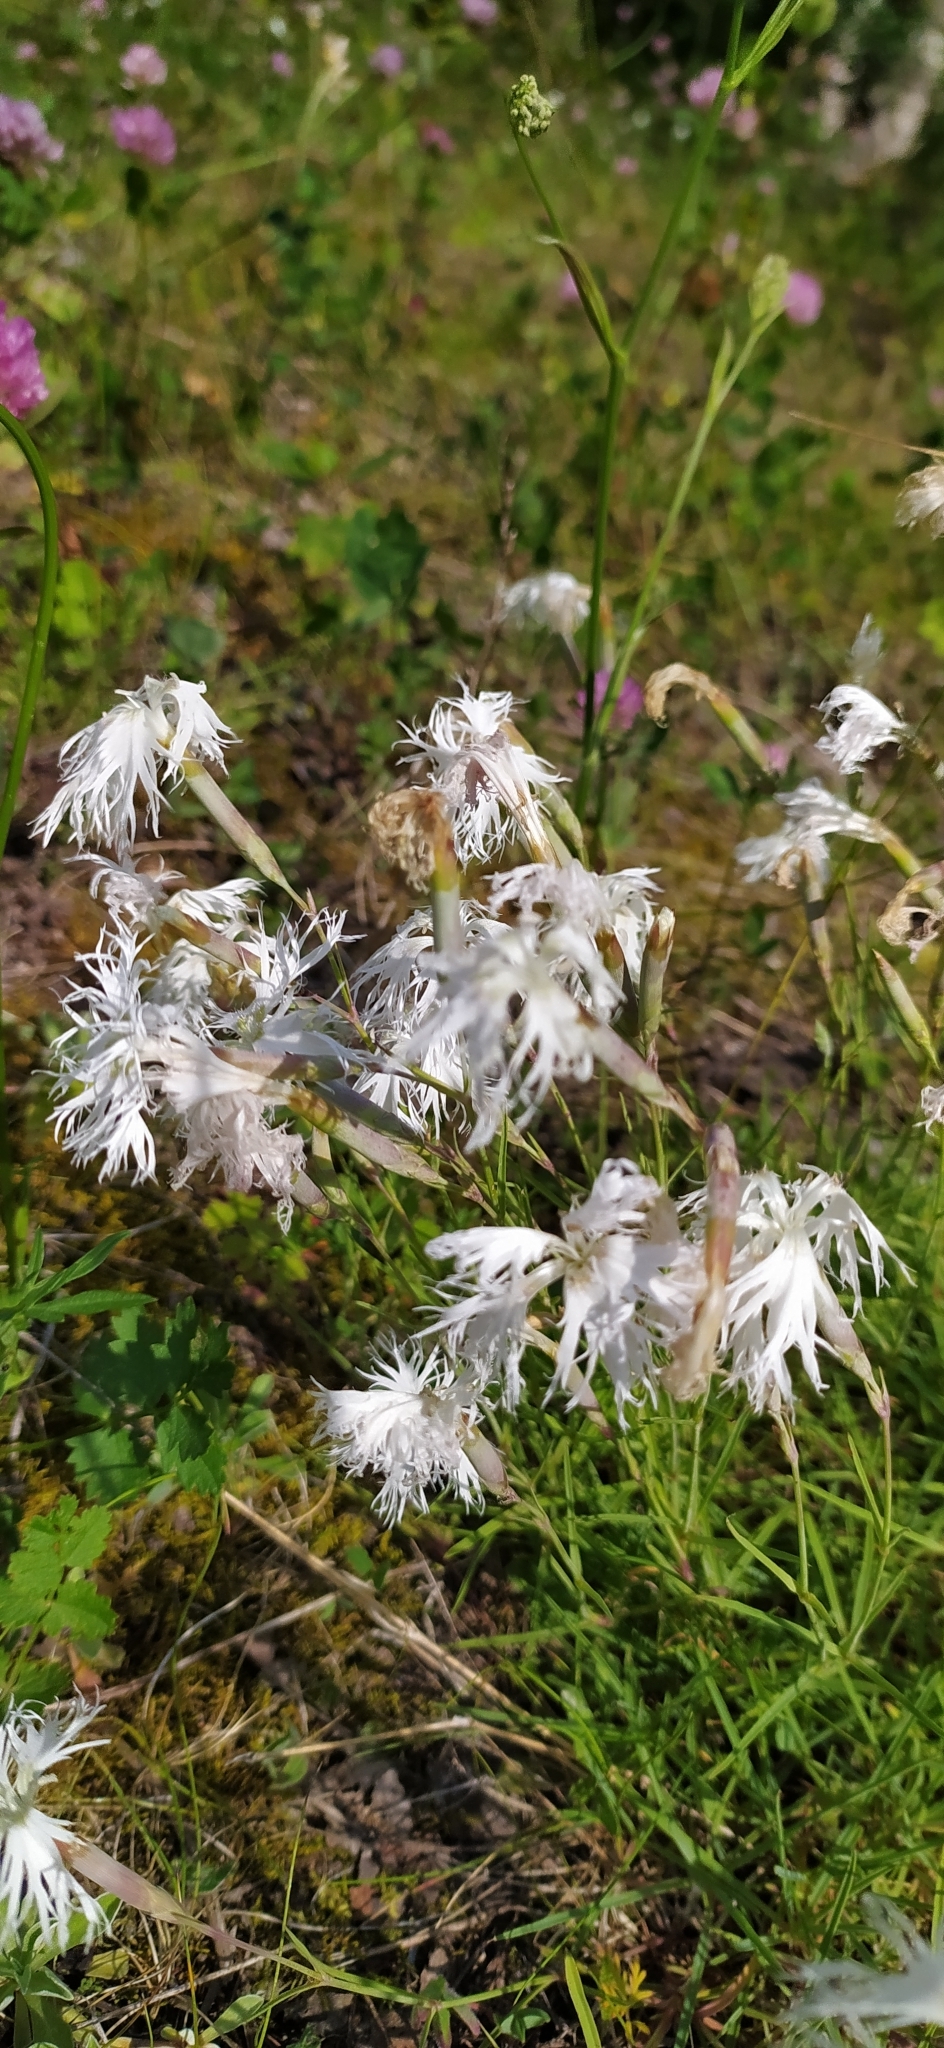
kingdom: Plantae
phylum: Tracheophyta
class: Magnoliopsida
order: Caryophyllales
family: Caryophyllaceae
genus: Dianthus
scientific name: Dianthus acicularis
